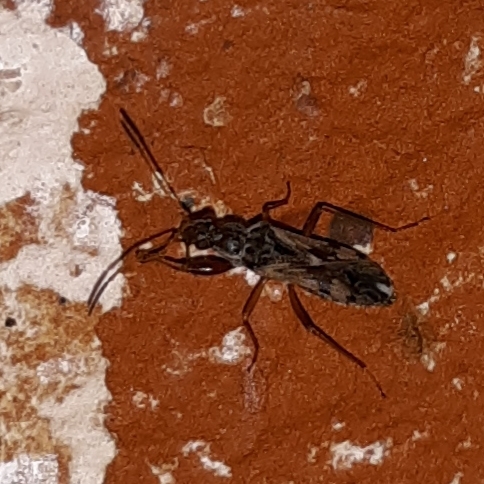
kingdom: Animalia
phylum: Arthropoda
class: Insecta
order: Hemiptera
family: Rhyparochromidae
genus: Neopamera
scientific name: Neopamera bilobata
